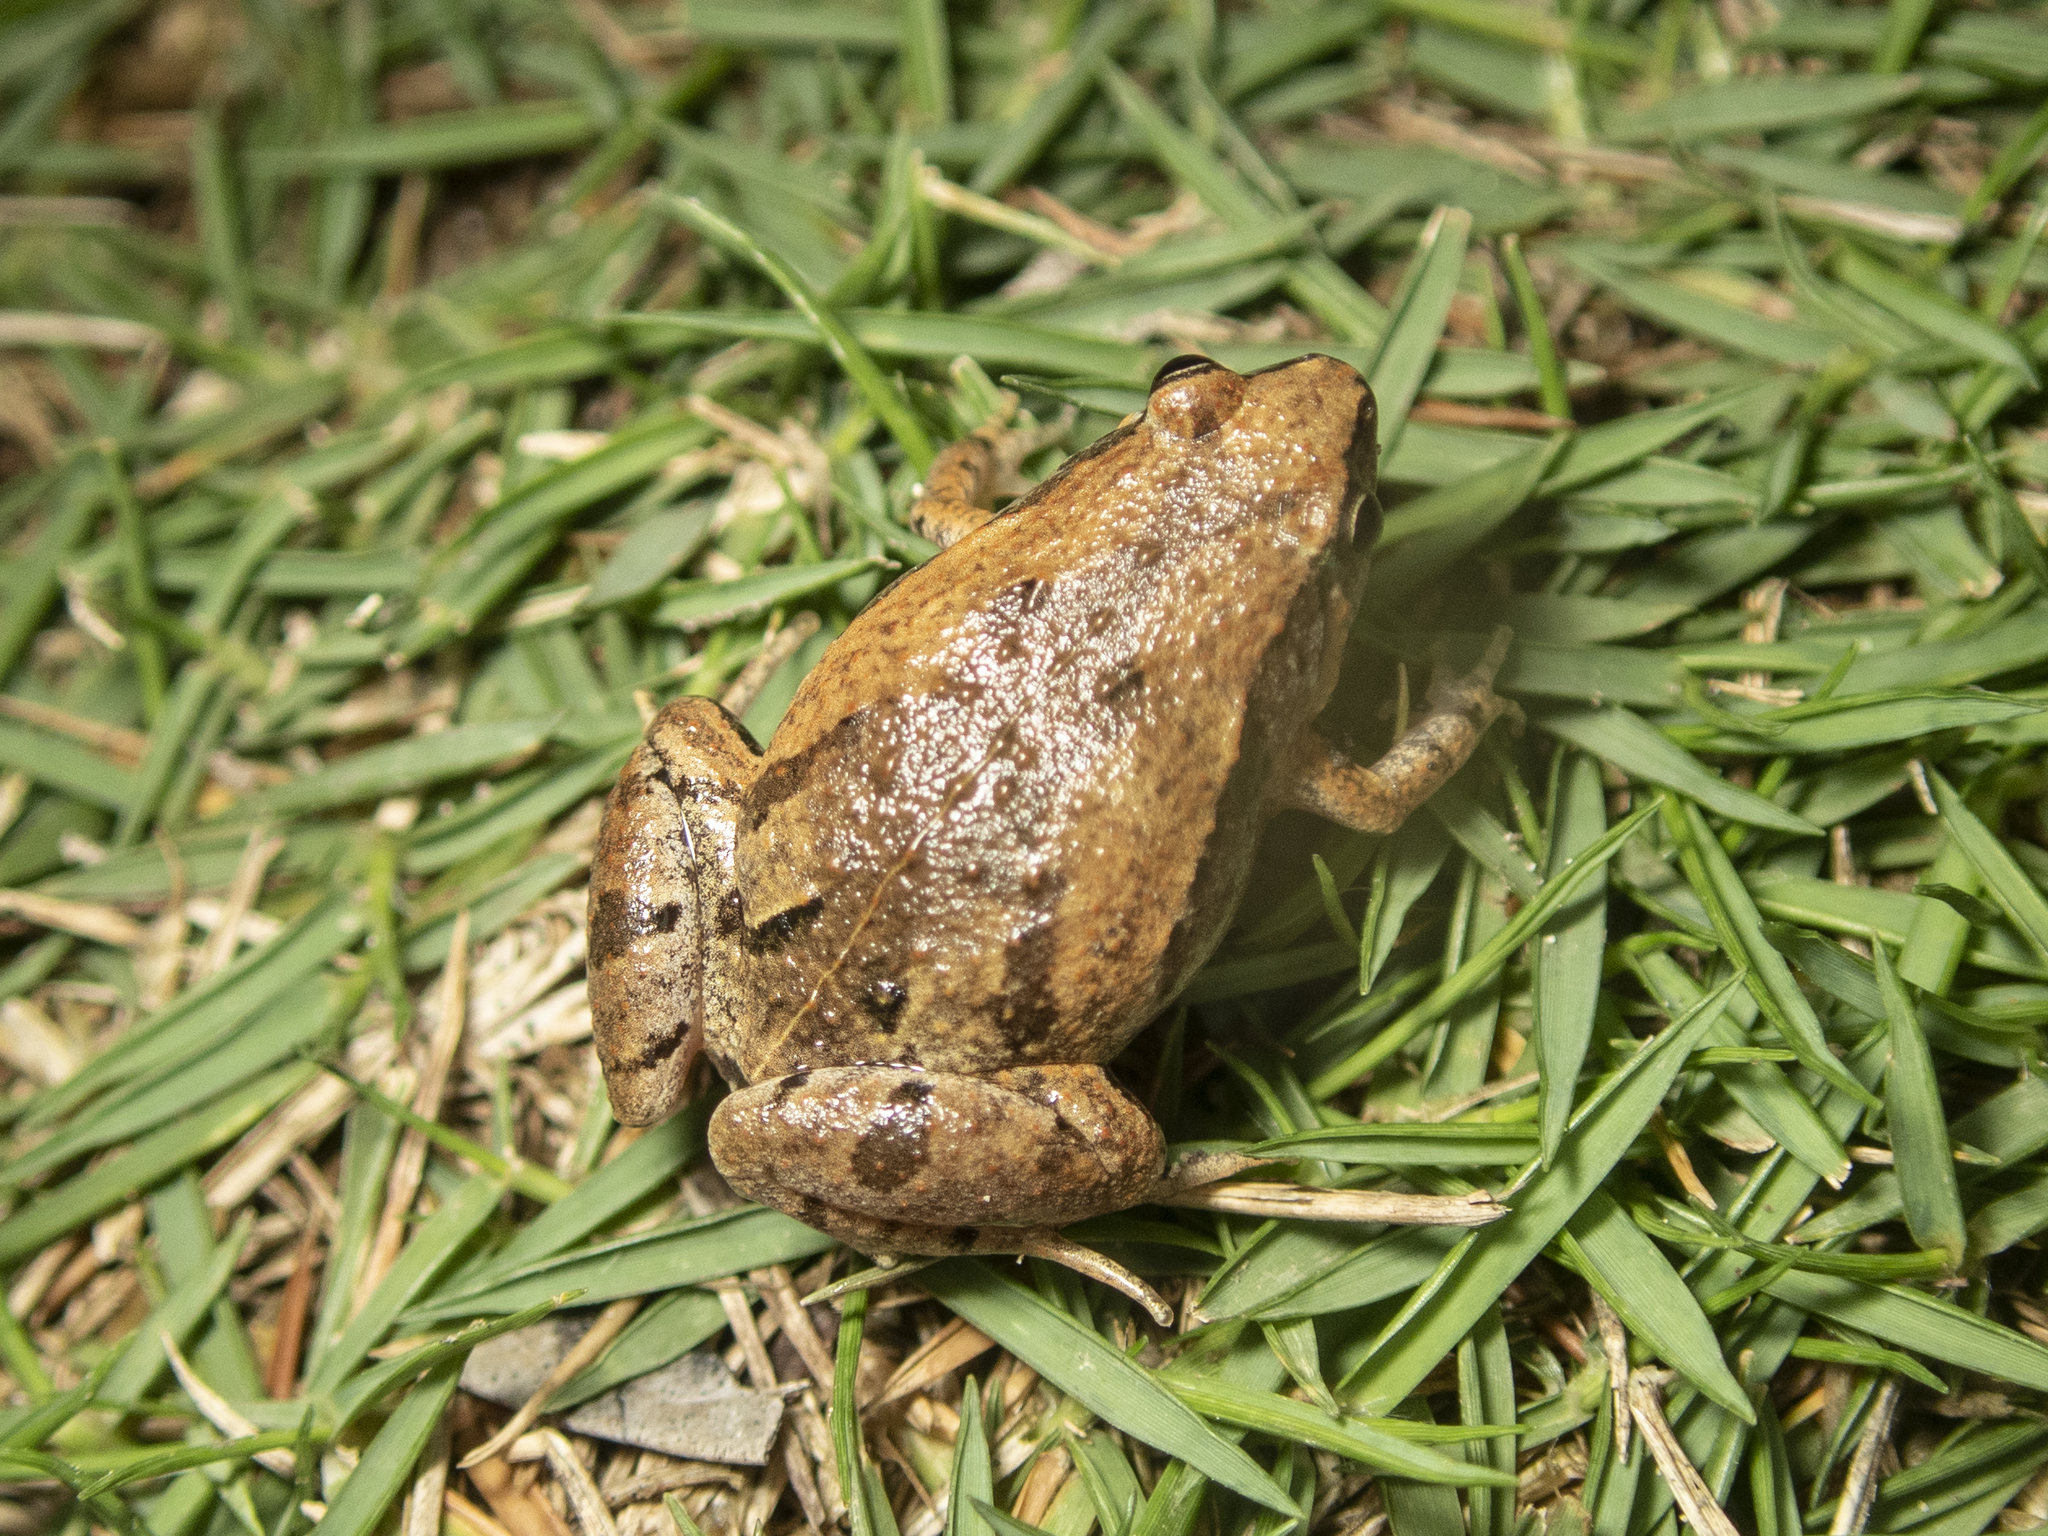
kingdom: Animalia
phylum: Chordata
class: Amphibia
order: Anura
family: Microhylidae
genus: Microhyla
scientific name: Microhyla fissipes
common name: Ornate narrow-mouthed frog
